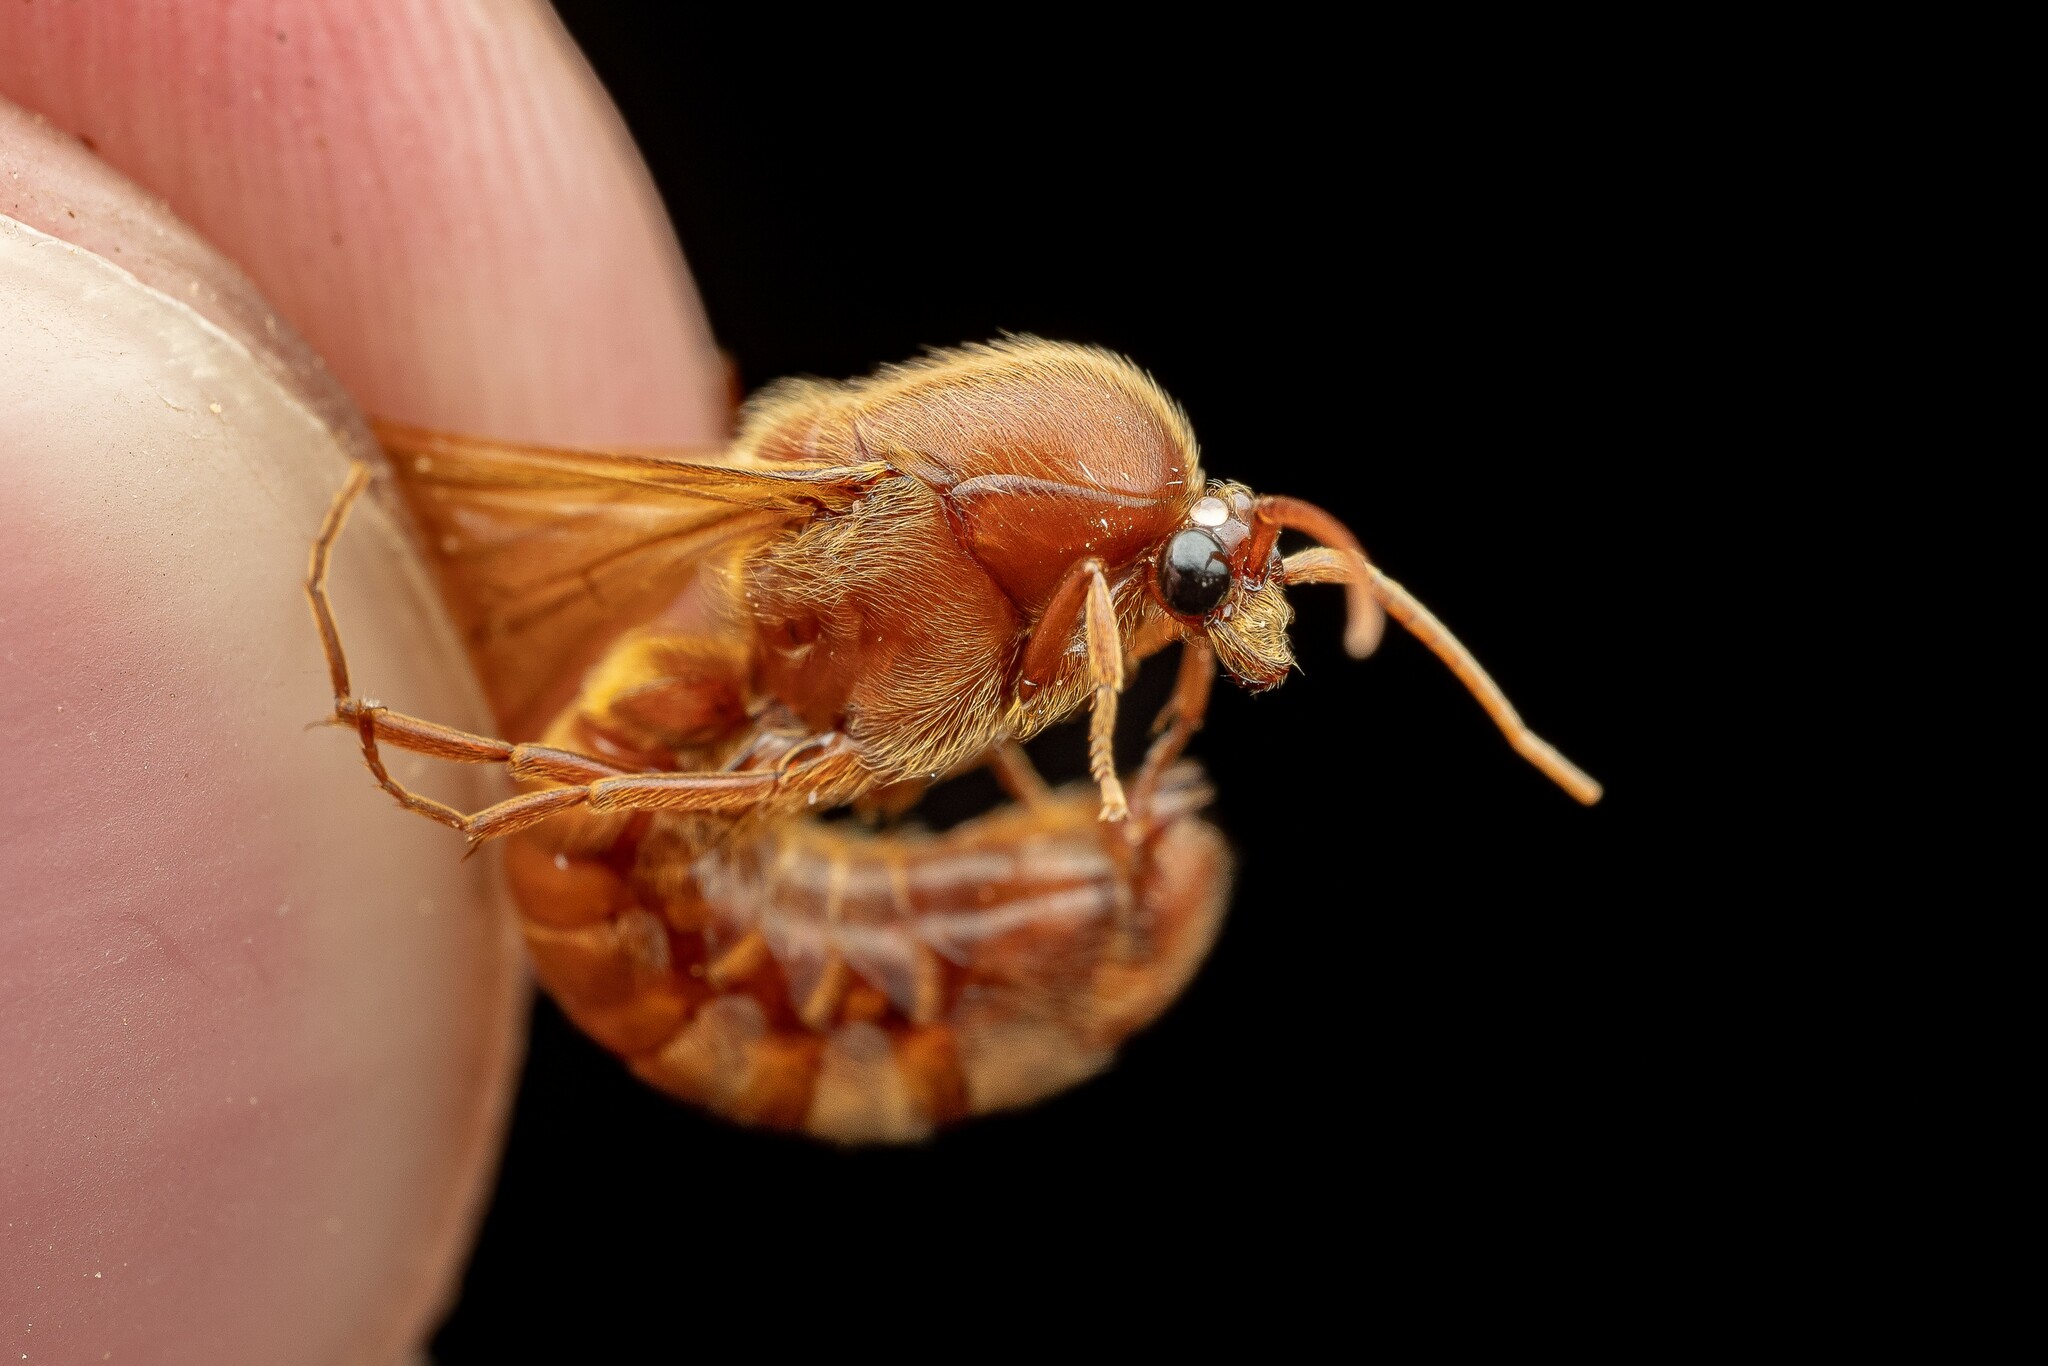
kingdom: Animalia
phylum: Arthropoda
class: Insecta
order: Hymenoptera
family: Formicidae
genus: Neivamyrmex
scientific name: Neivamyrmex swainsonii
